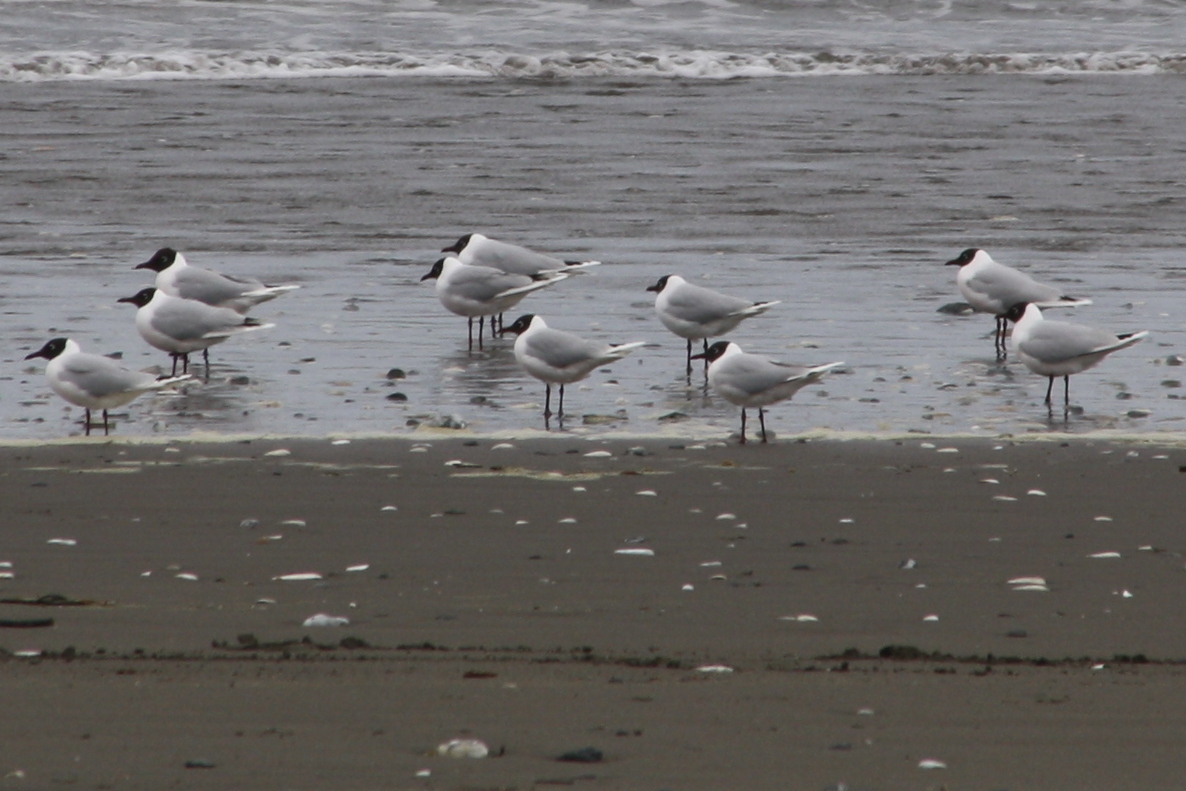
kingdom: Animalia
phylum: Chordata
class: Aves
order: Charadriiformes
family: Laridae
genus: Chroicocephalus
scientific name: Chroicocephalus maculipennis
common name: Brown-hooded gull
